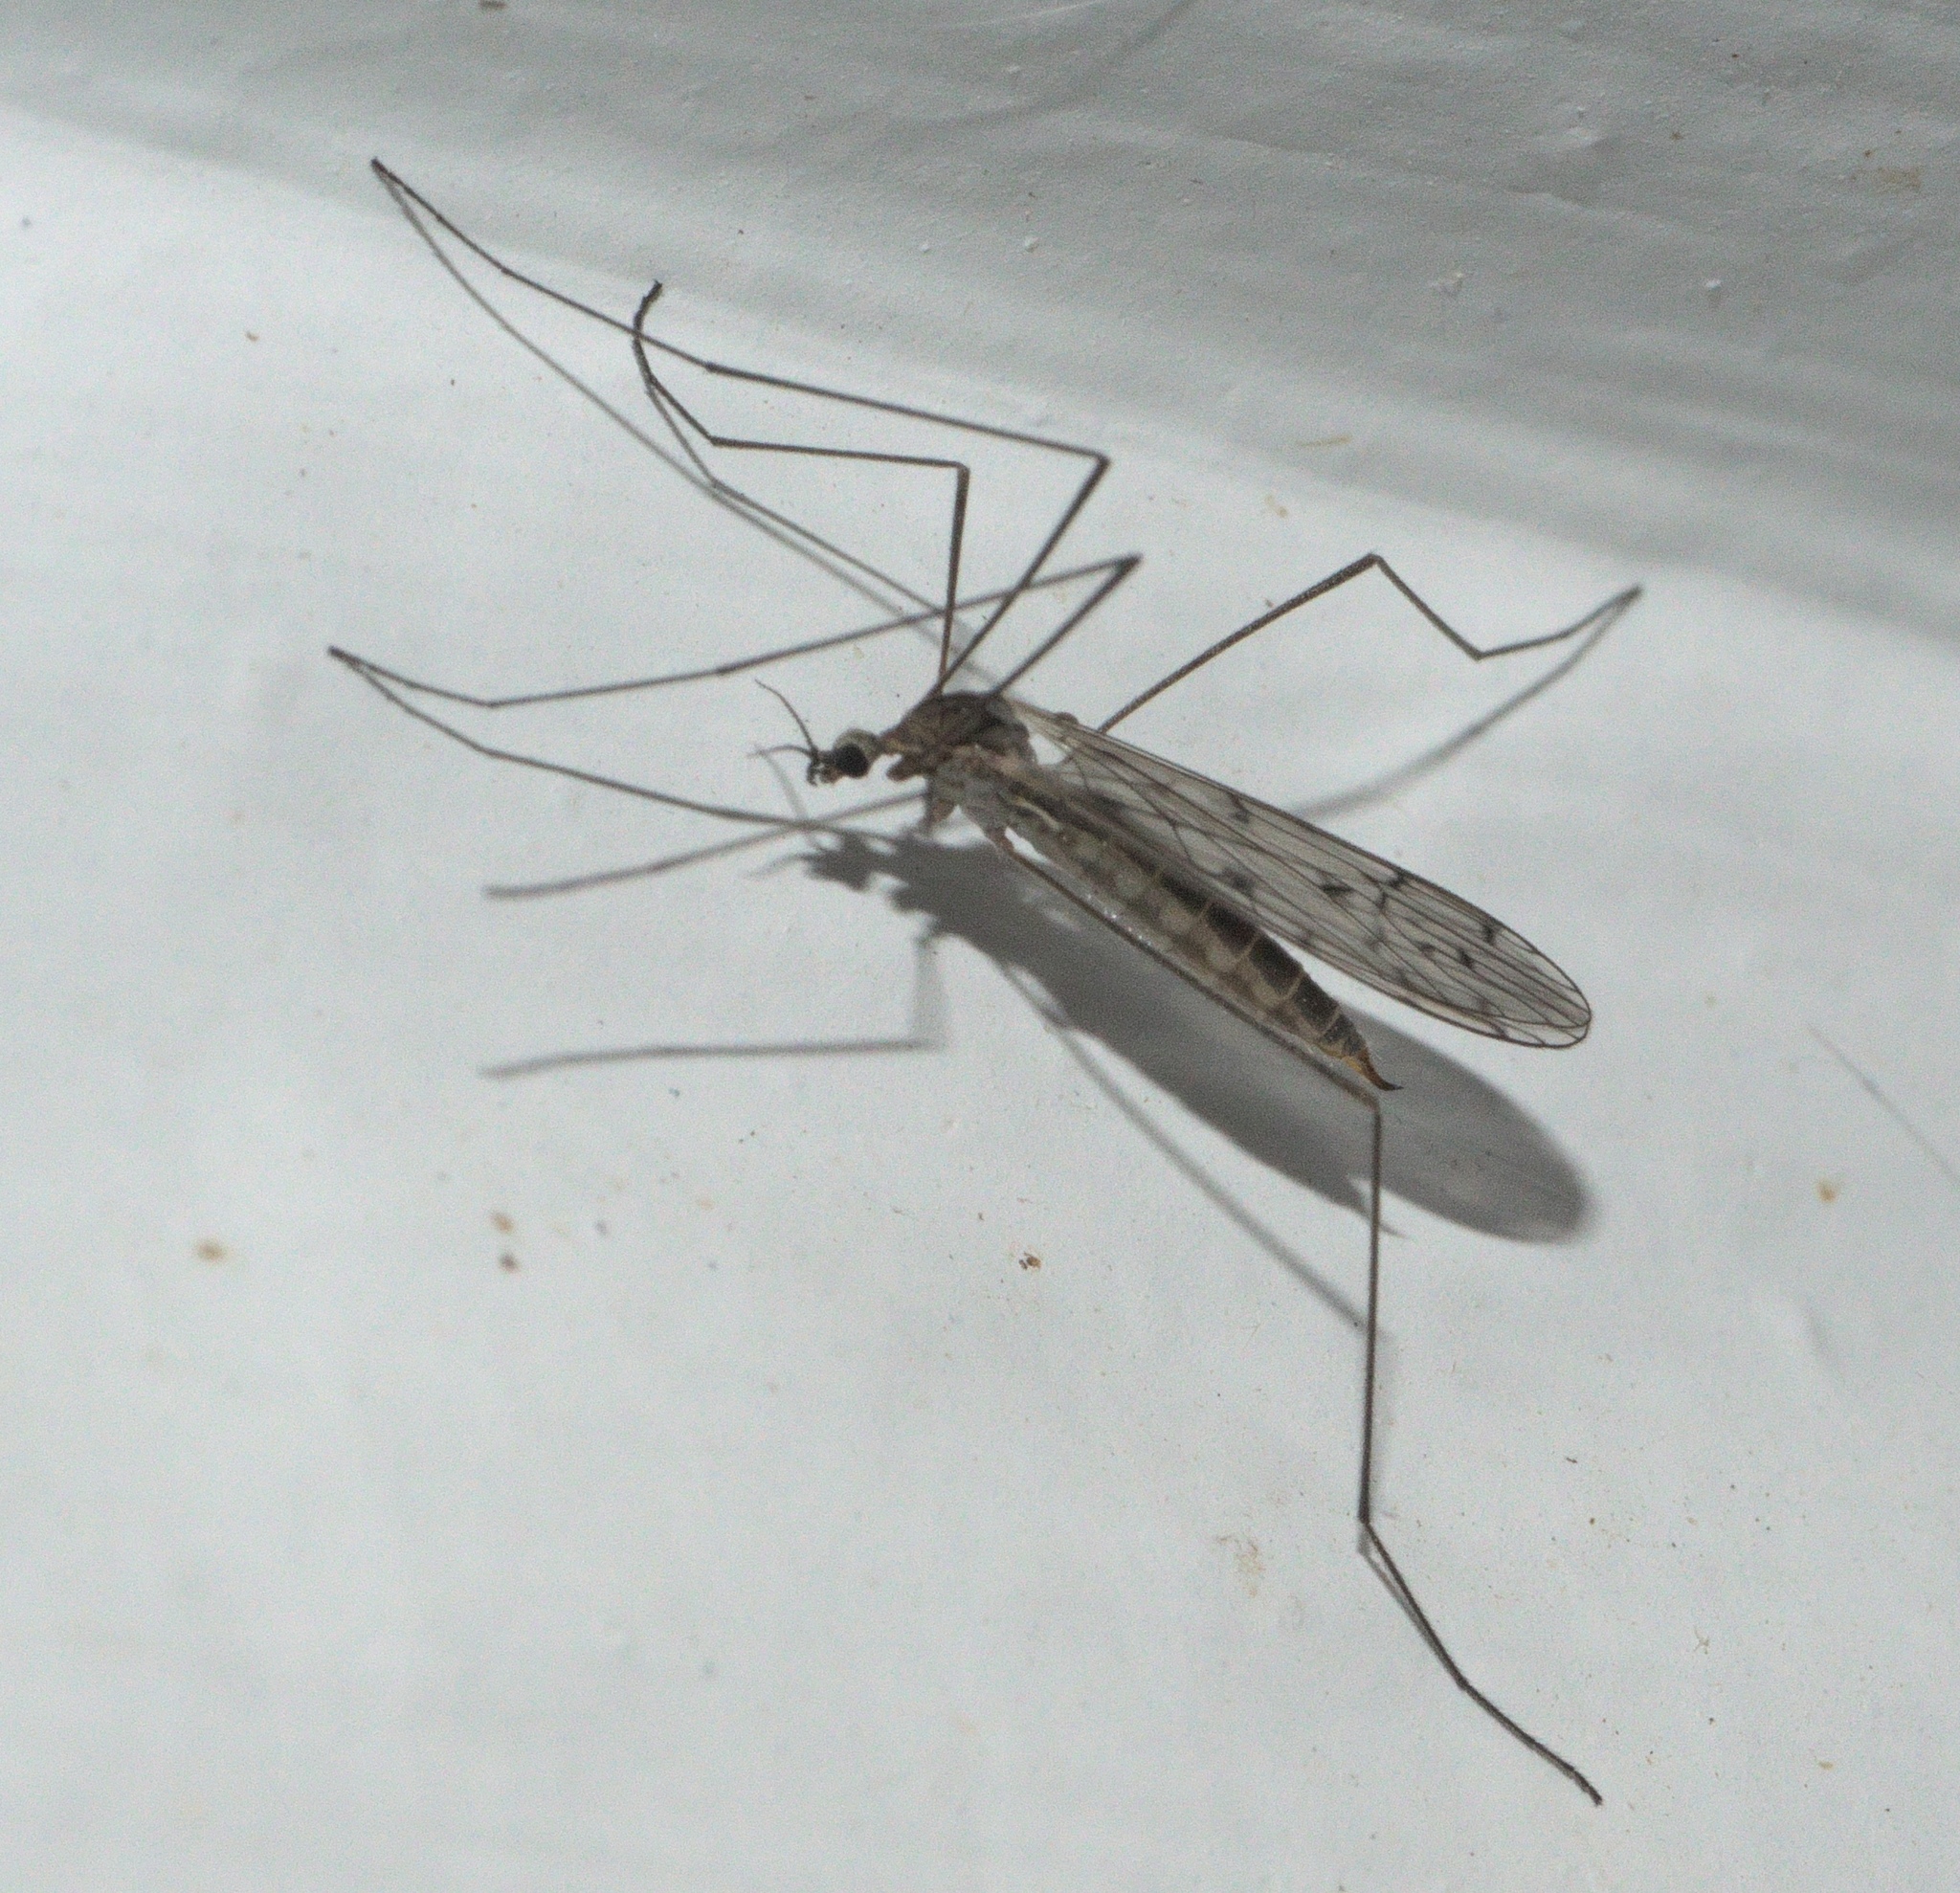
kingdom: Animalia
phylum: Arthropoda
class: Insecta
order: Diptera
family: Limoniidae
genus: Symplecta
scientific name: Symplecta cana
